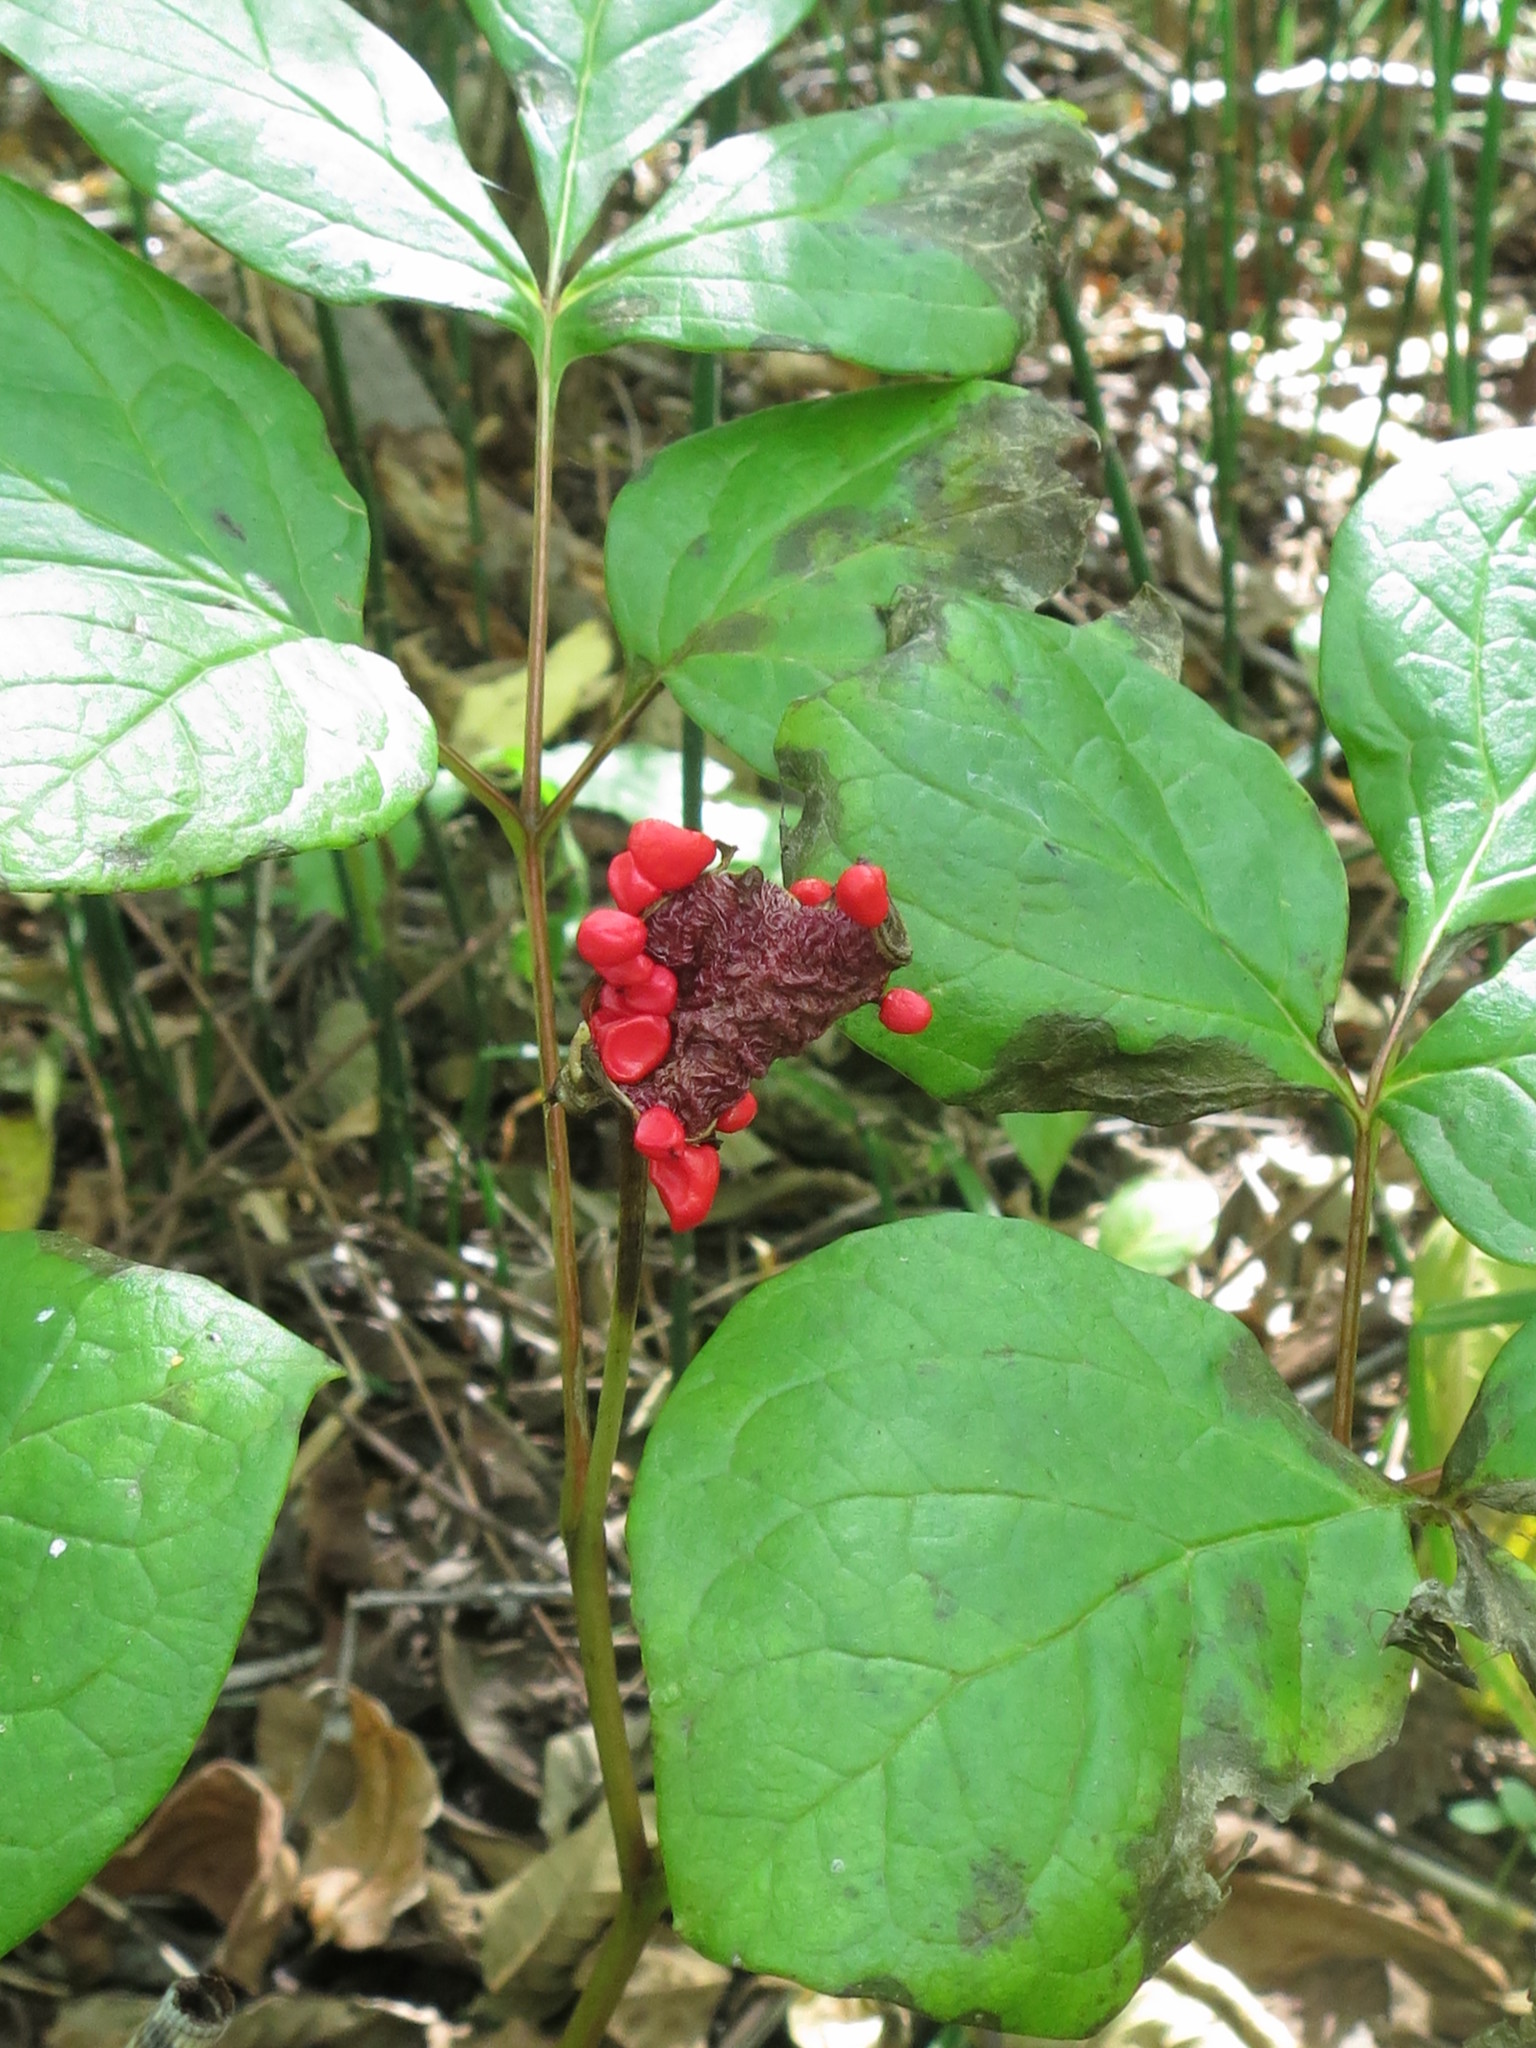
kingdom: Plantae
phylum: Tracheophyta
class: Magnoliopsida
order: Saxifragales
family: Paeoniaceae
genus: Paeonia
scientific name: Paeonia obovata
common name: Chinese peony
